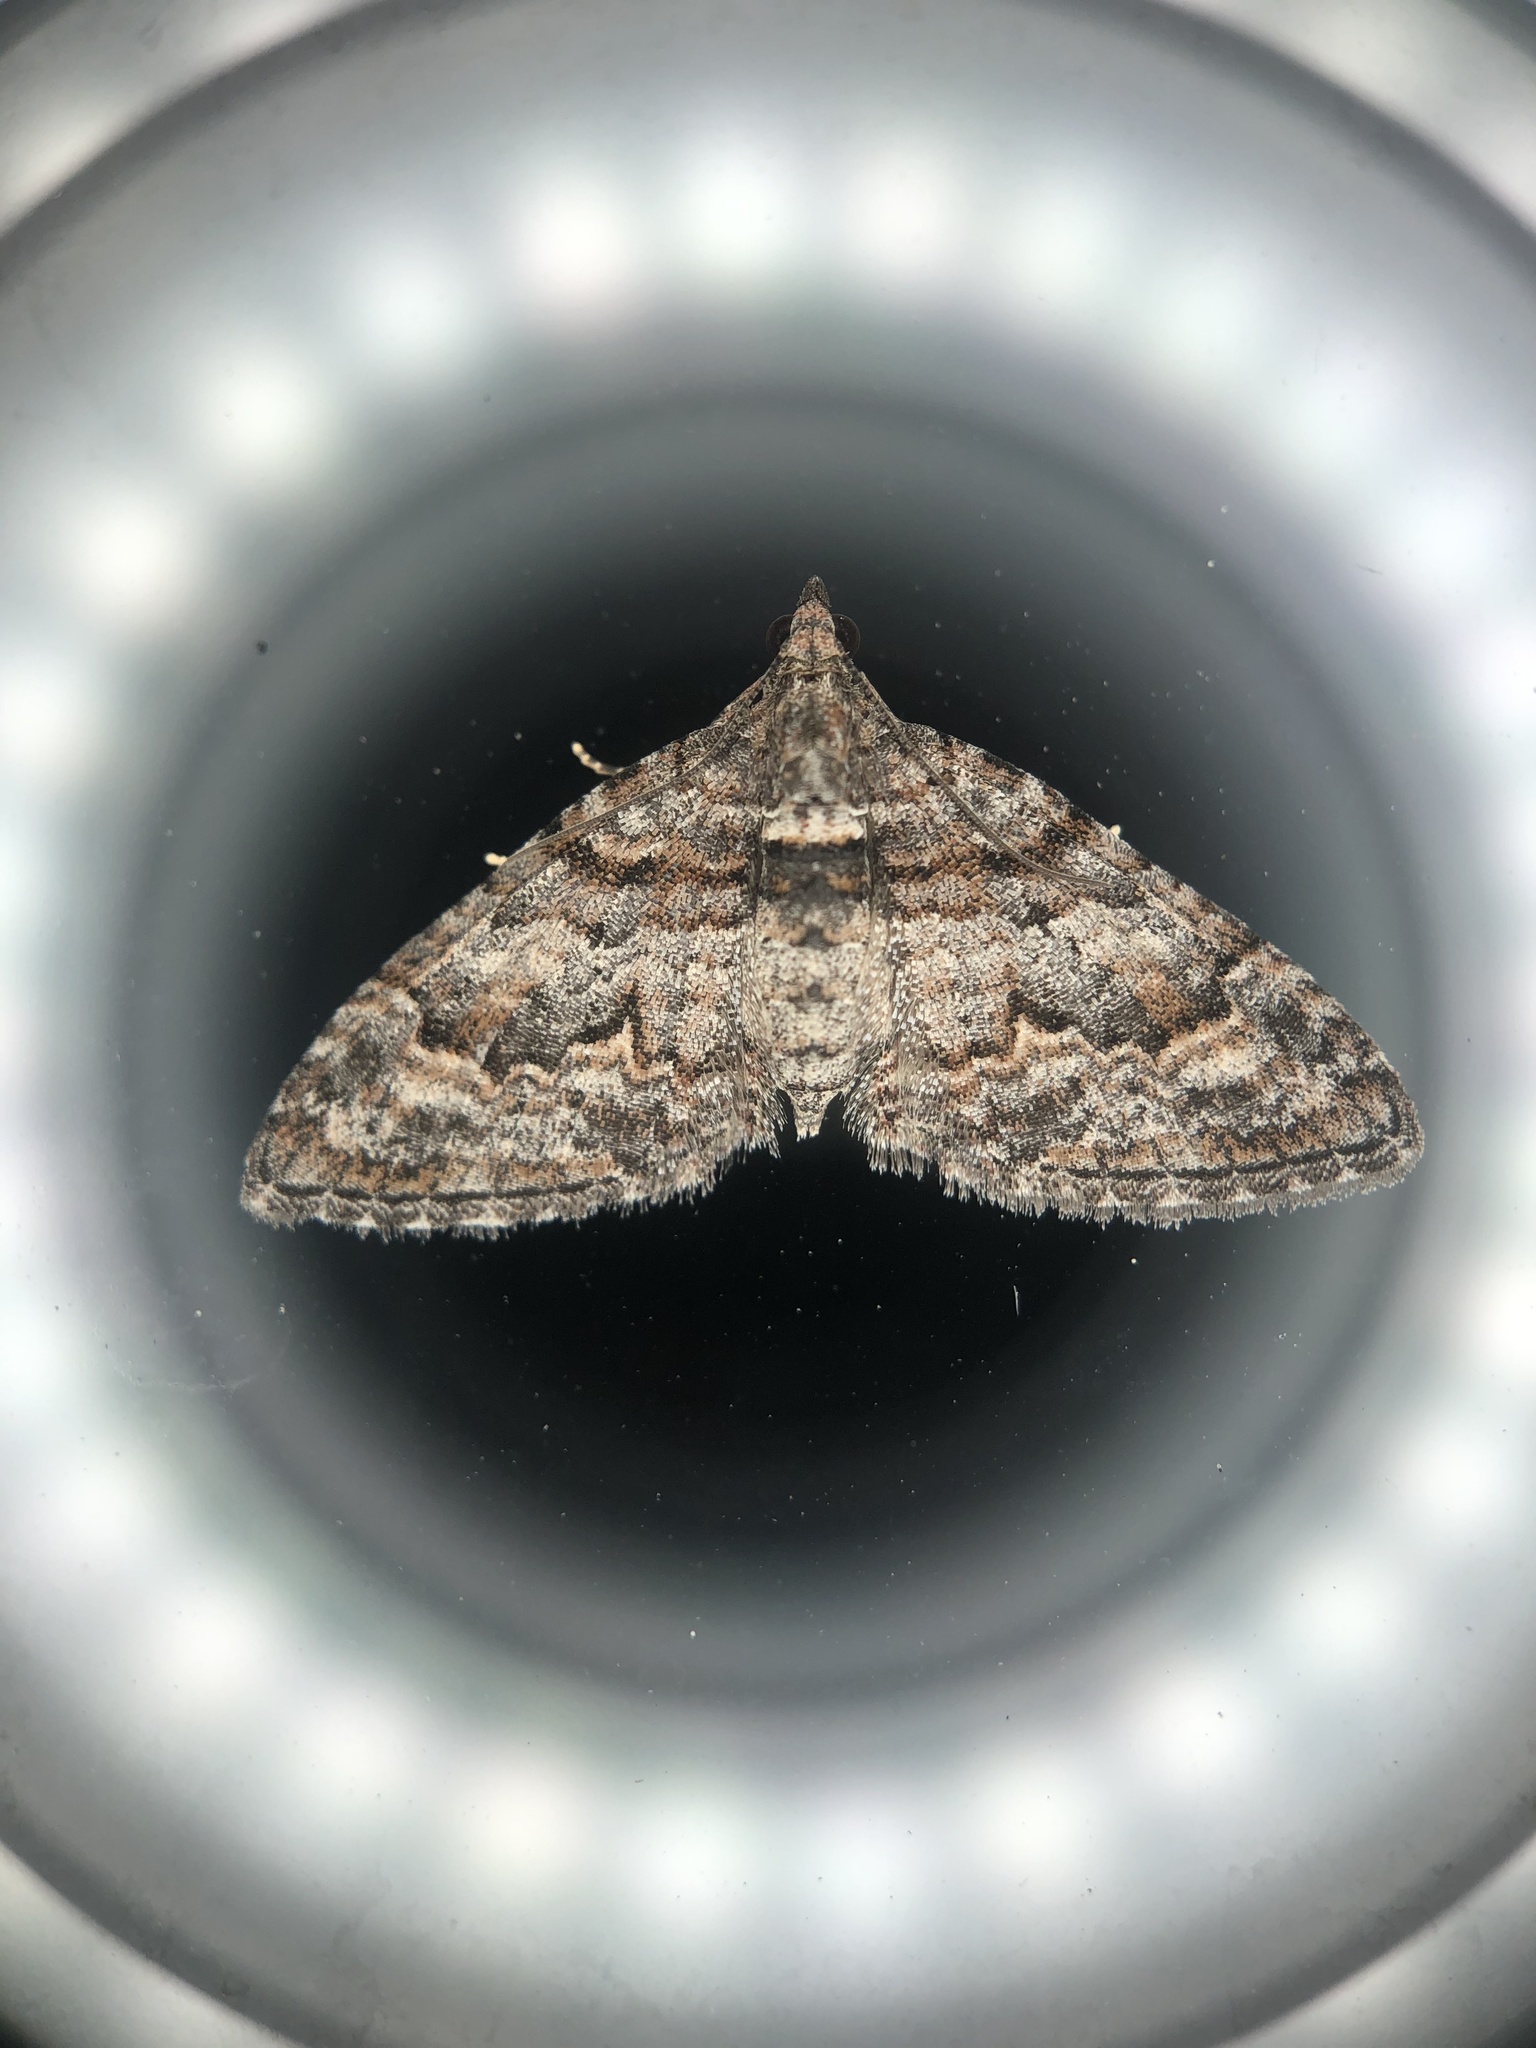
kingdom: Animalia
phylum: Arthropoda
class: Insecta
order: Lepidoptera
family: Geometridae
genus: Phrissogonus
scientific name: Phrissogonus laticostata
